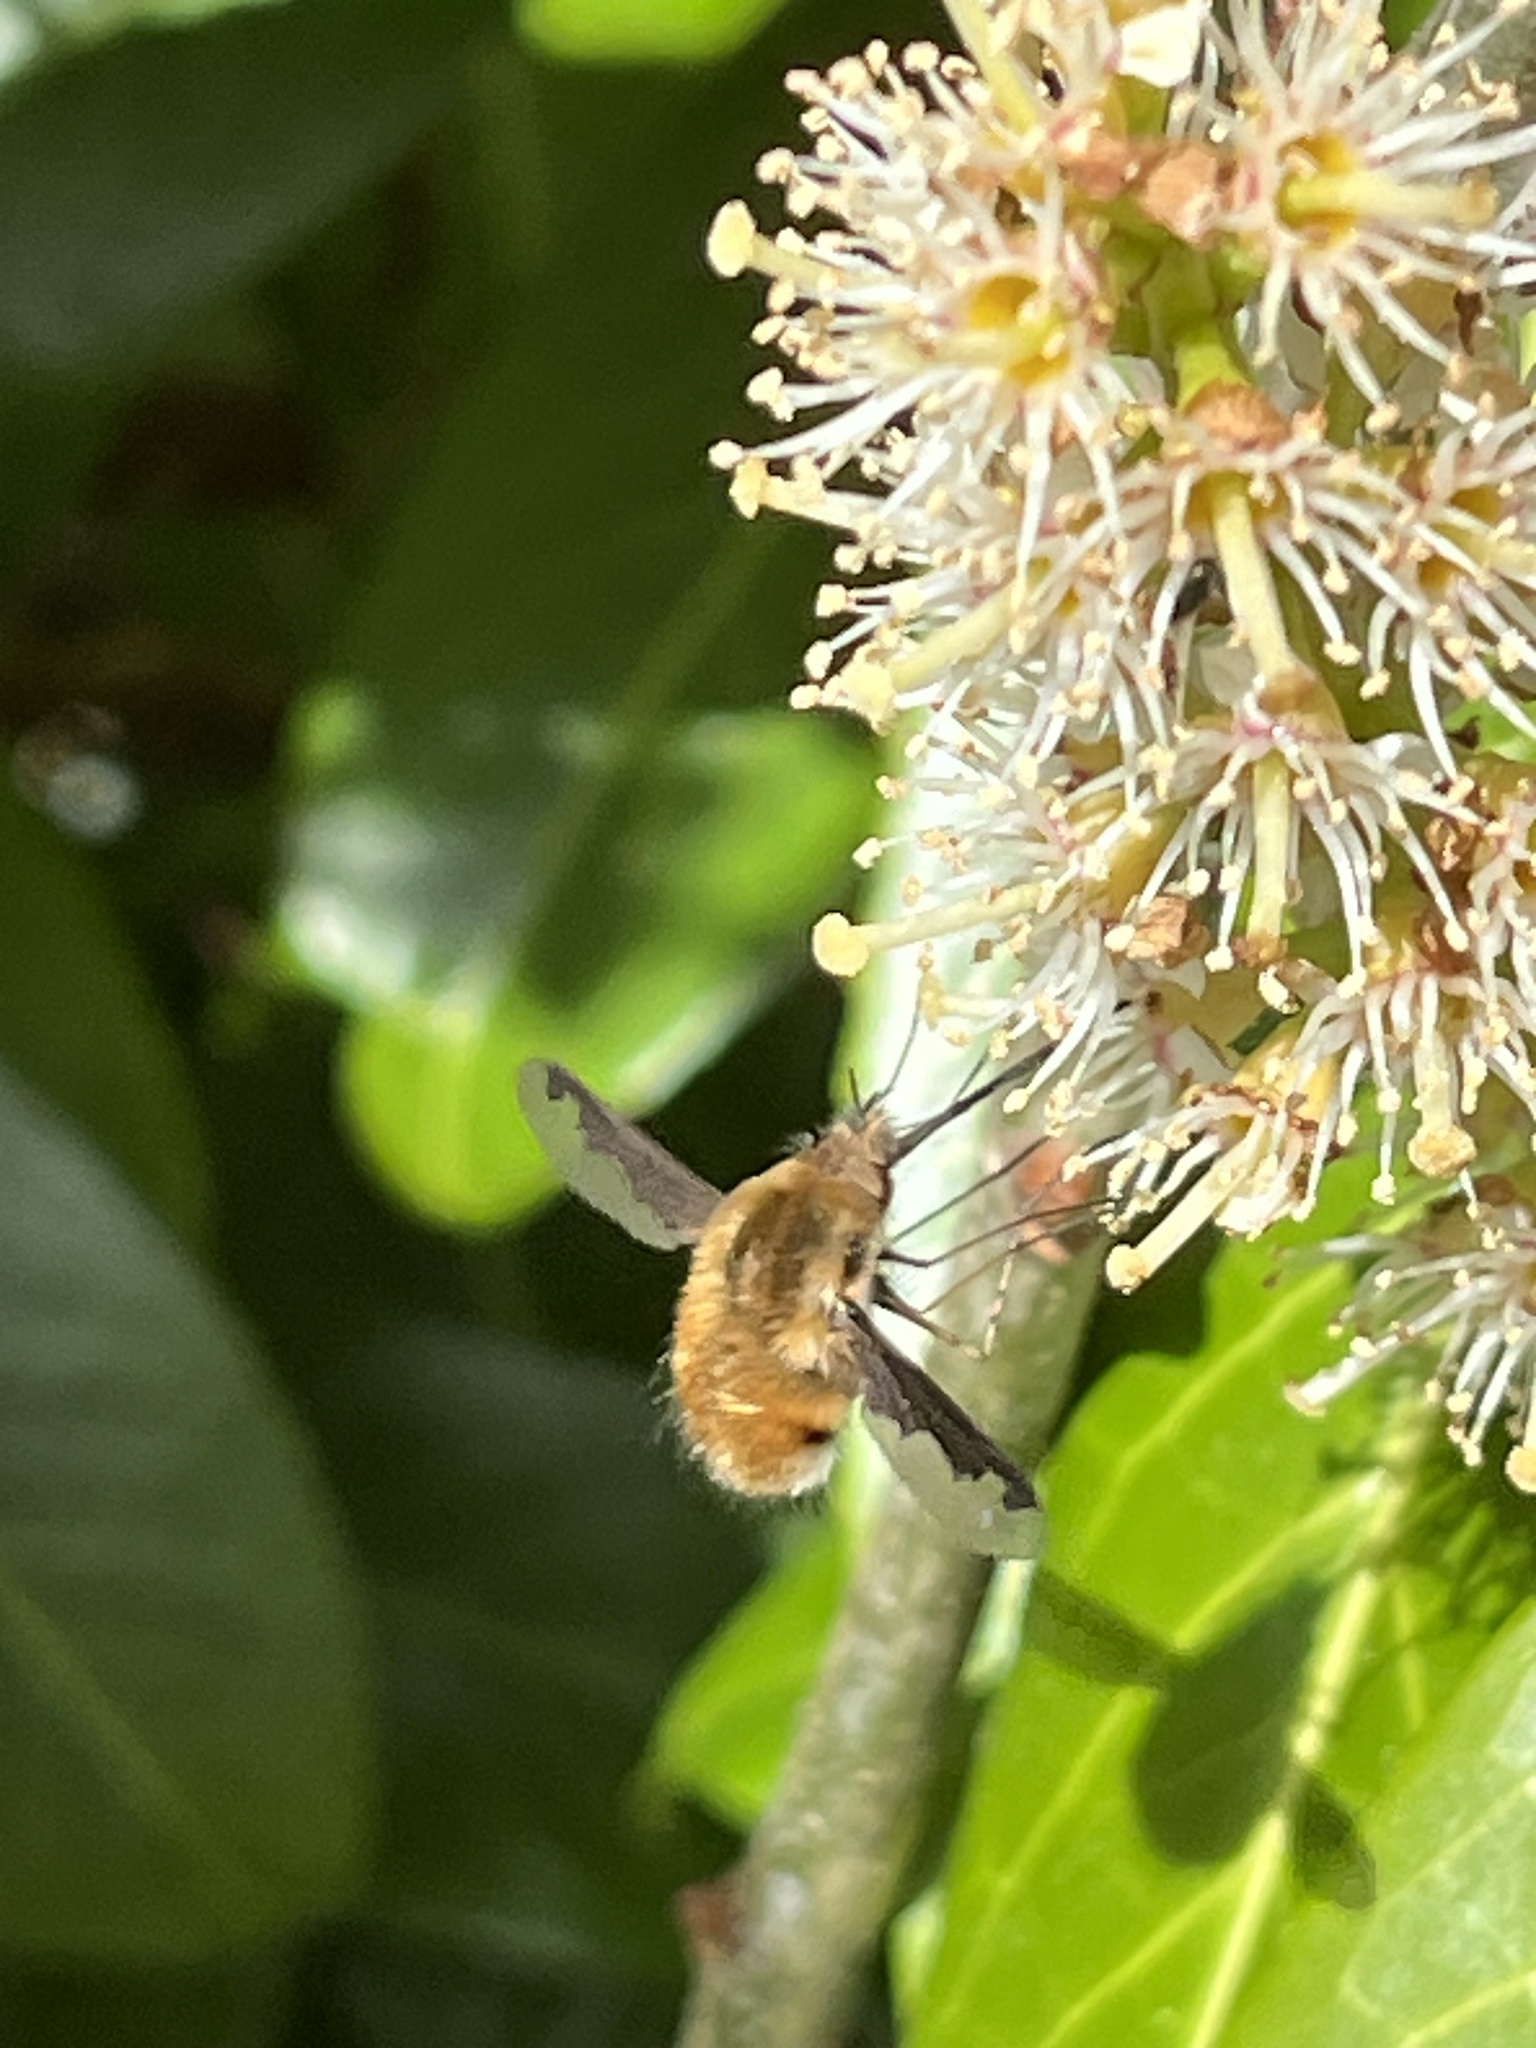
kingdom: Animalia
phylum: Arthropoda
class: Insecta
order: Diptera
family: Bombyliidae
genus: Bombylius
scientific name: Bombylius major
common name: Bee fly
